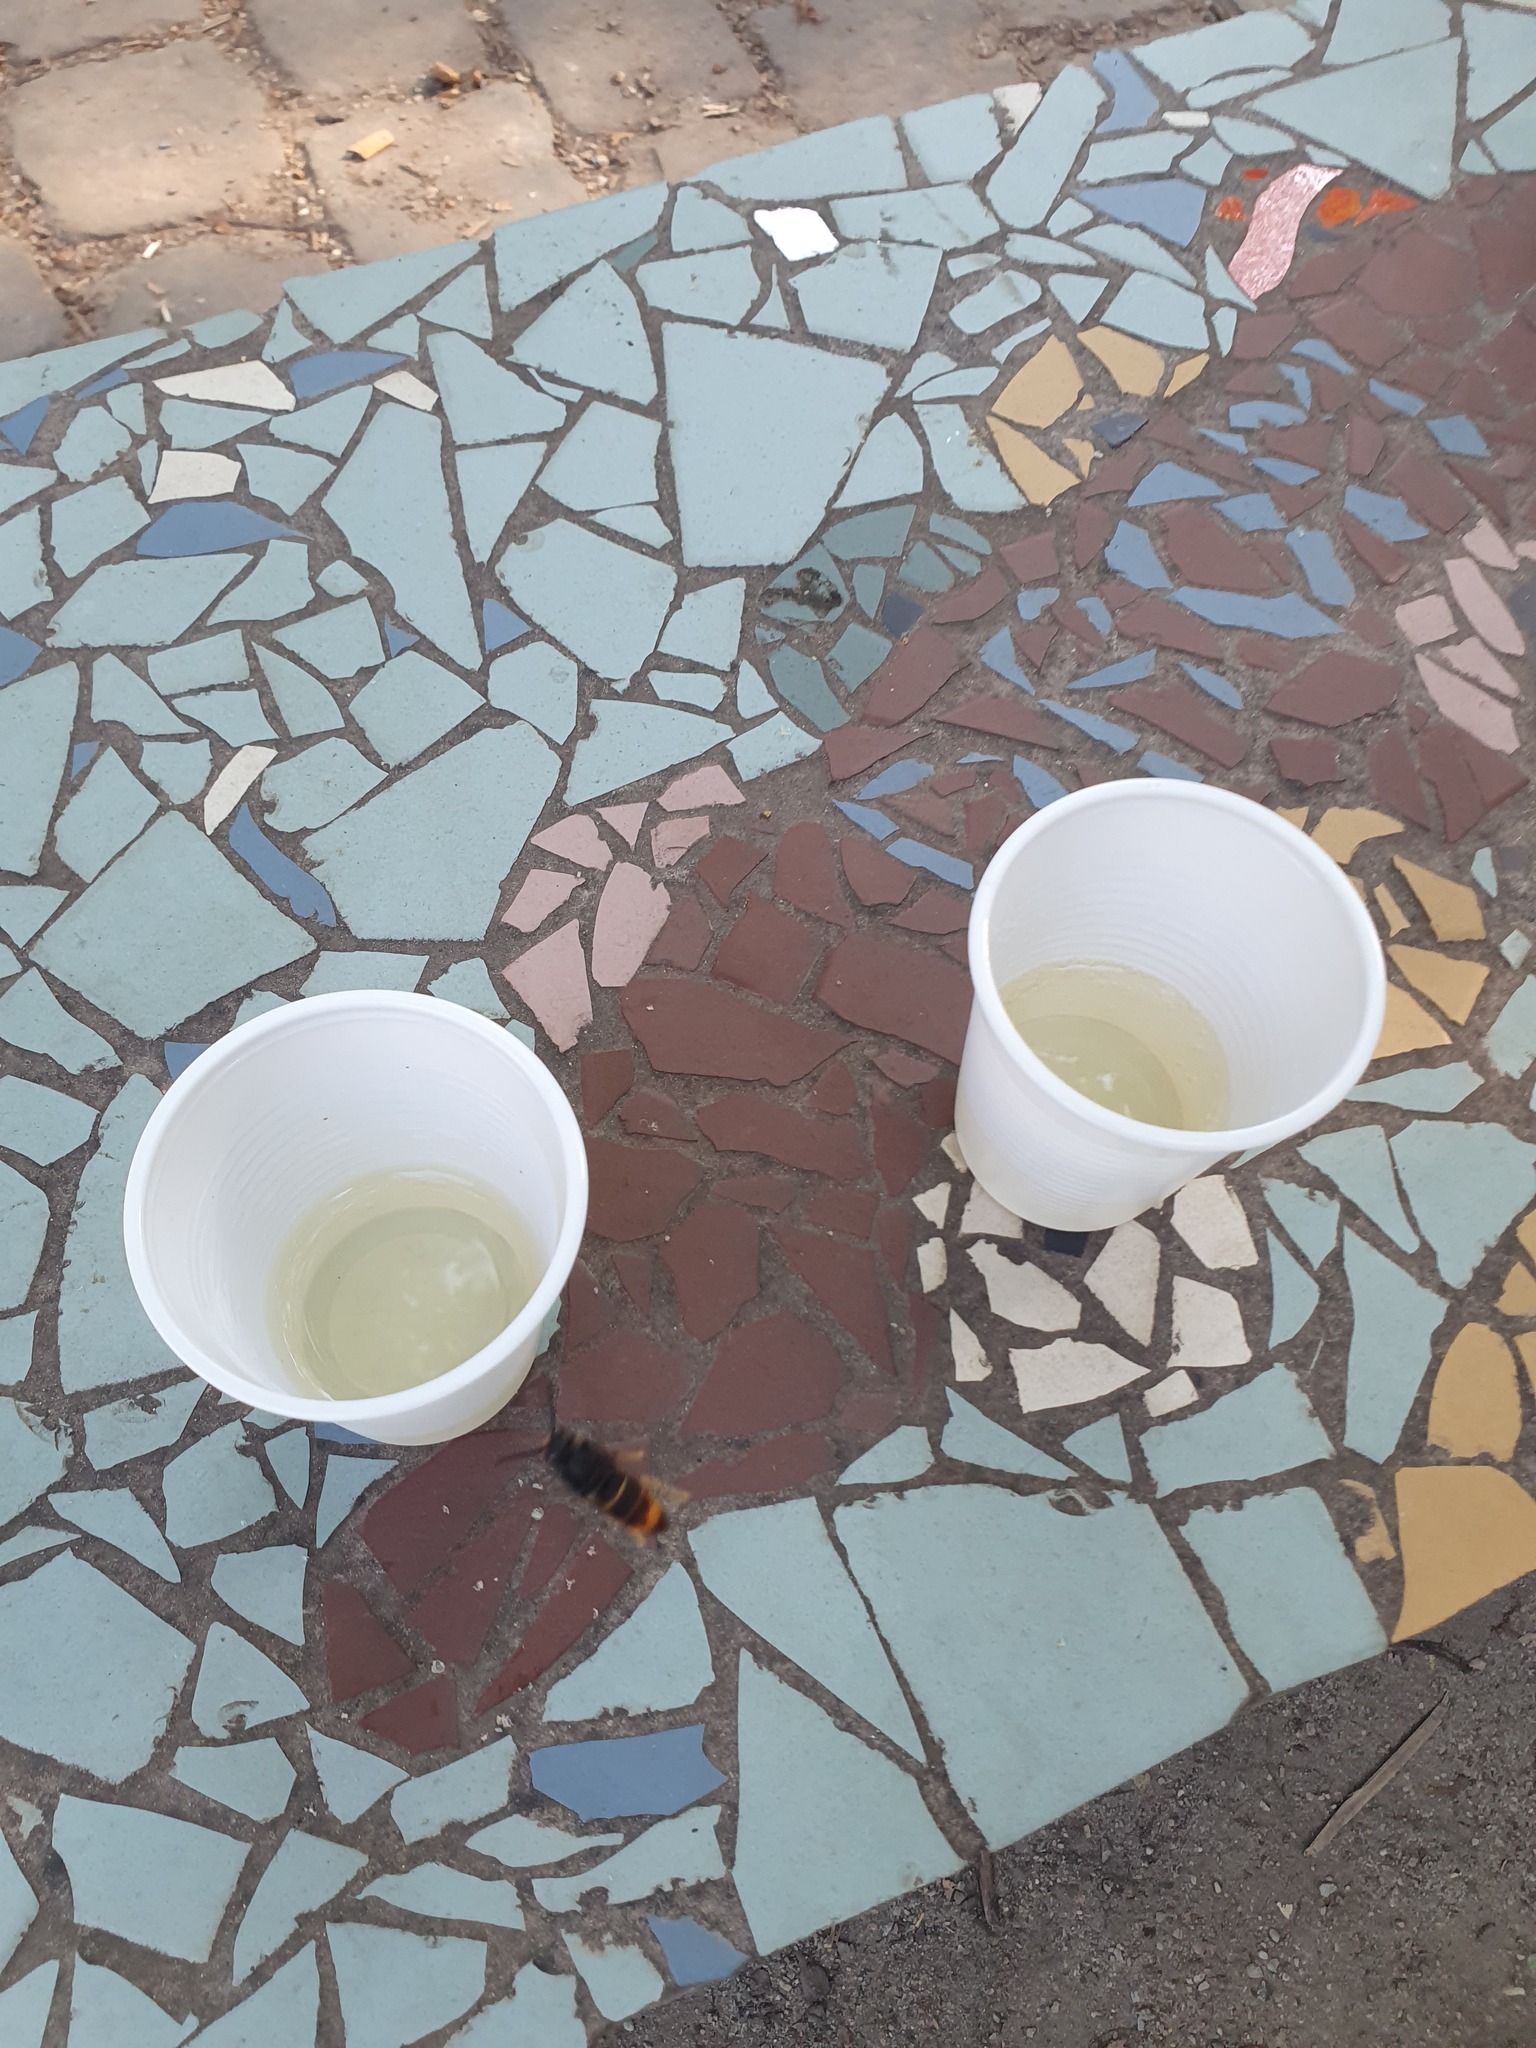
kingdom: Animalia
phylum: Arthropoda
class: Insecta
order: Hymenoptera
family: Vespidae
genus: Vespa
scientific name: Vespa velutina
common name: Asian hornet
